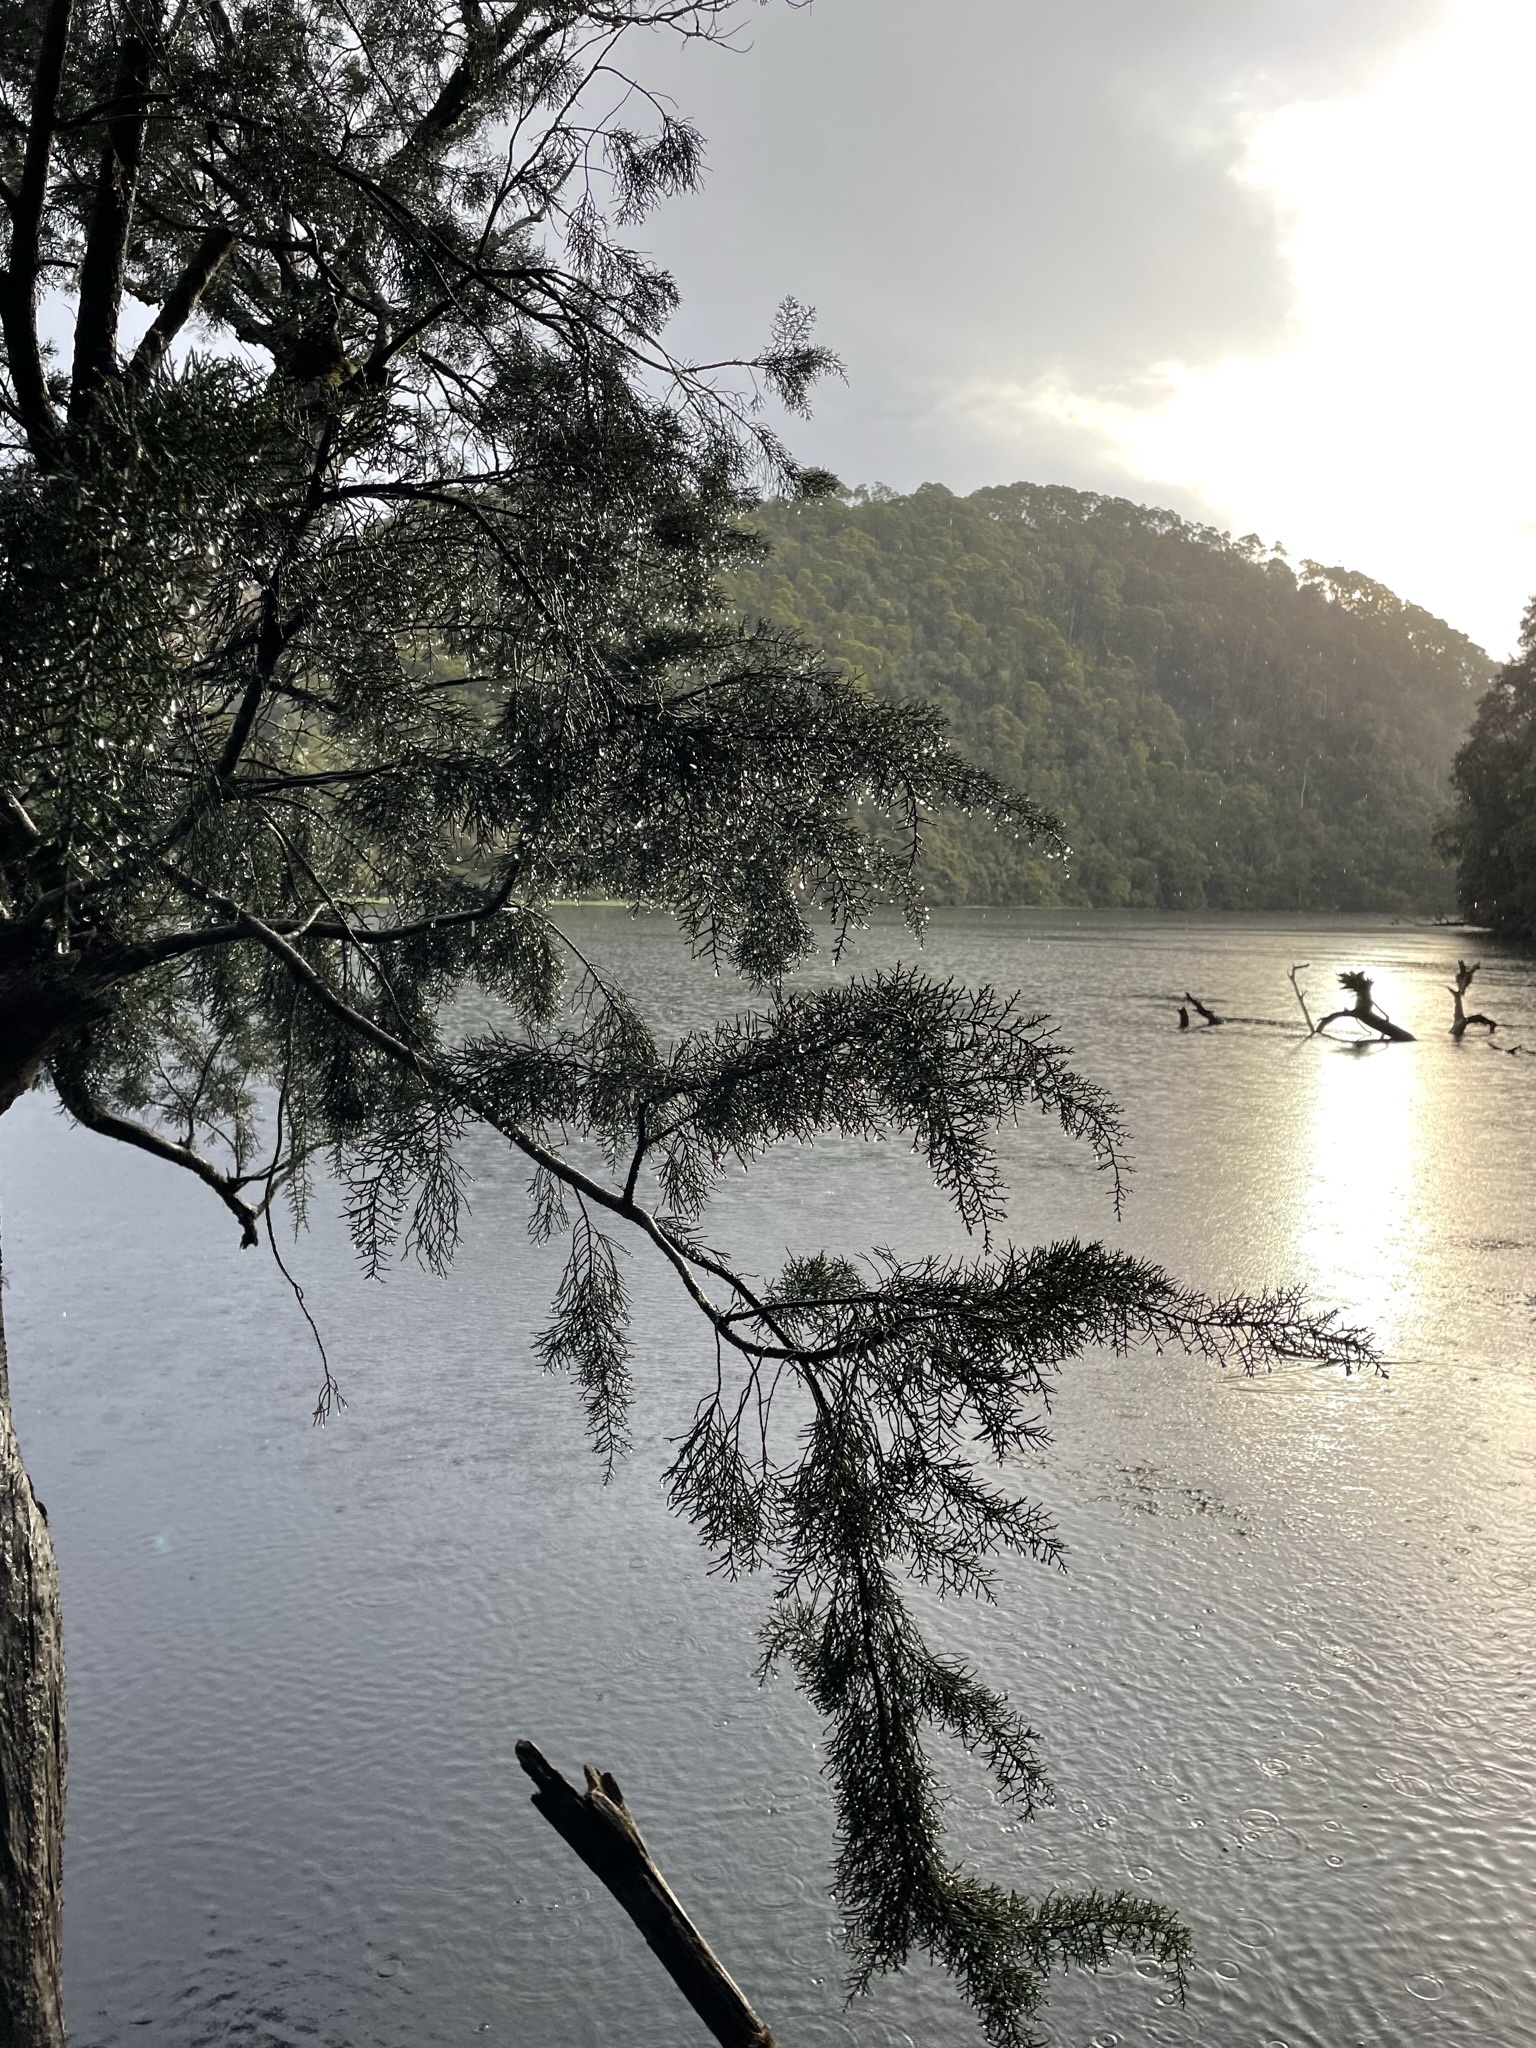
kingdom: Plantae
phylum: Tracheophyta
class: Pinopsida
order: Pinales
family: Podocarpaceae
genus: Lagarostrobos
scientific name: Lagarostrobos franklinii
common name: Huon pine
